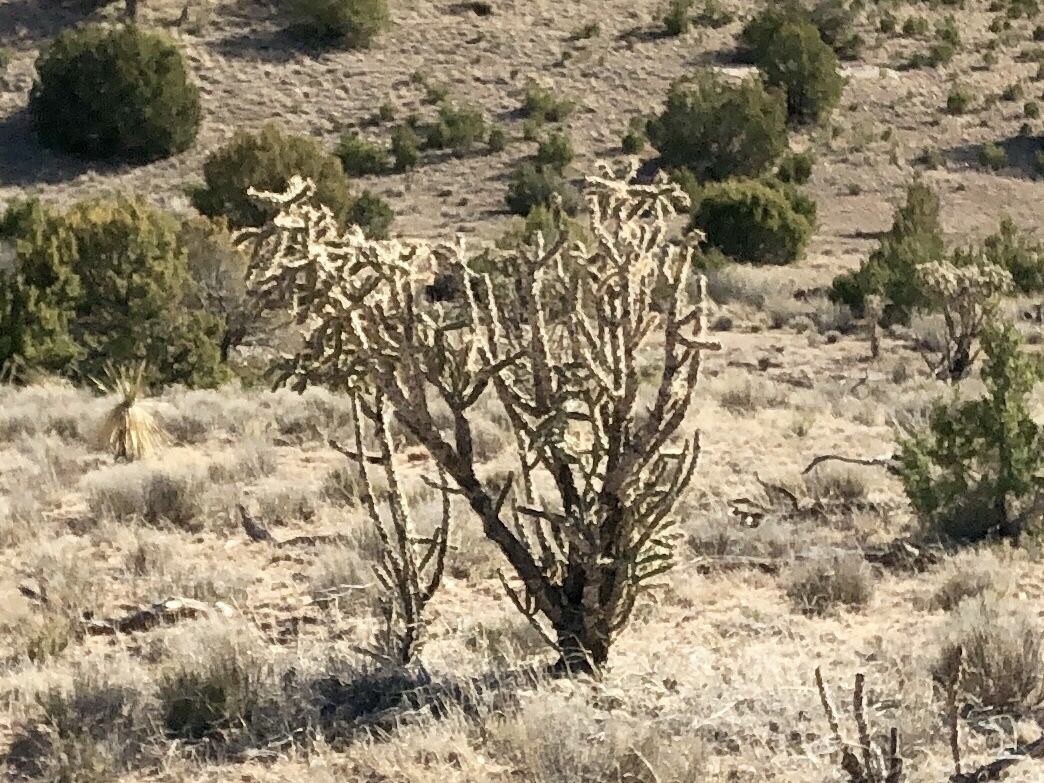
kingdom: Plantae
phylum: Tracheophyta
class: Magnoliopsida
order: Caryophyllales
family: Cactaceae
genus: Cylindropuntia
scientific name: Cylindropuntia imbricata
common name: Candelabrum cactus
